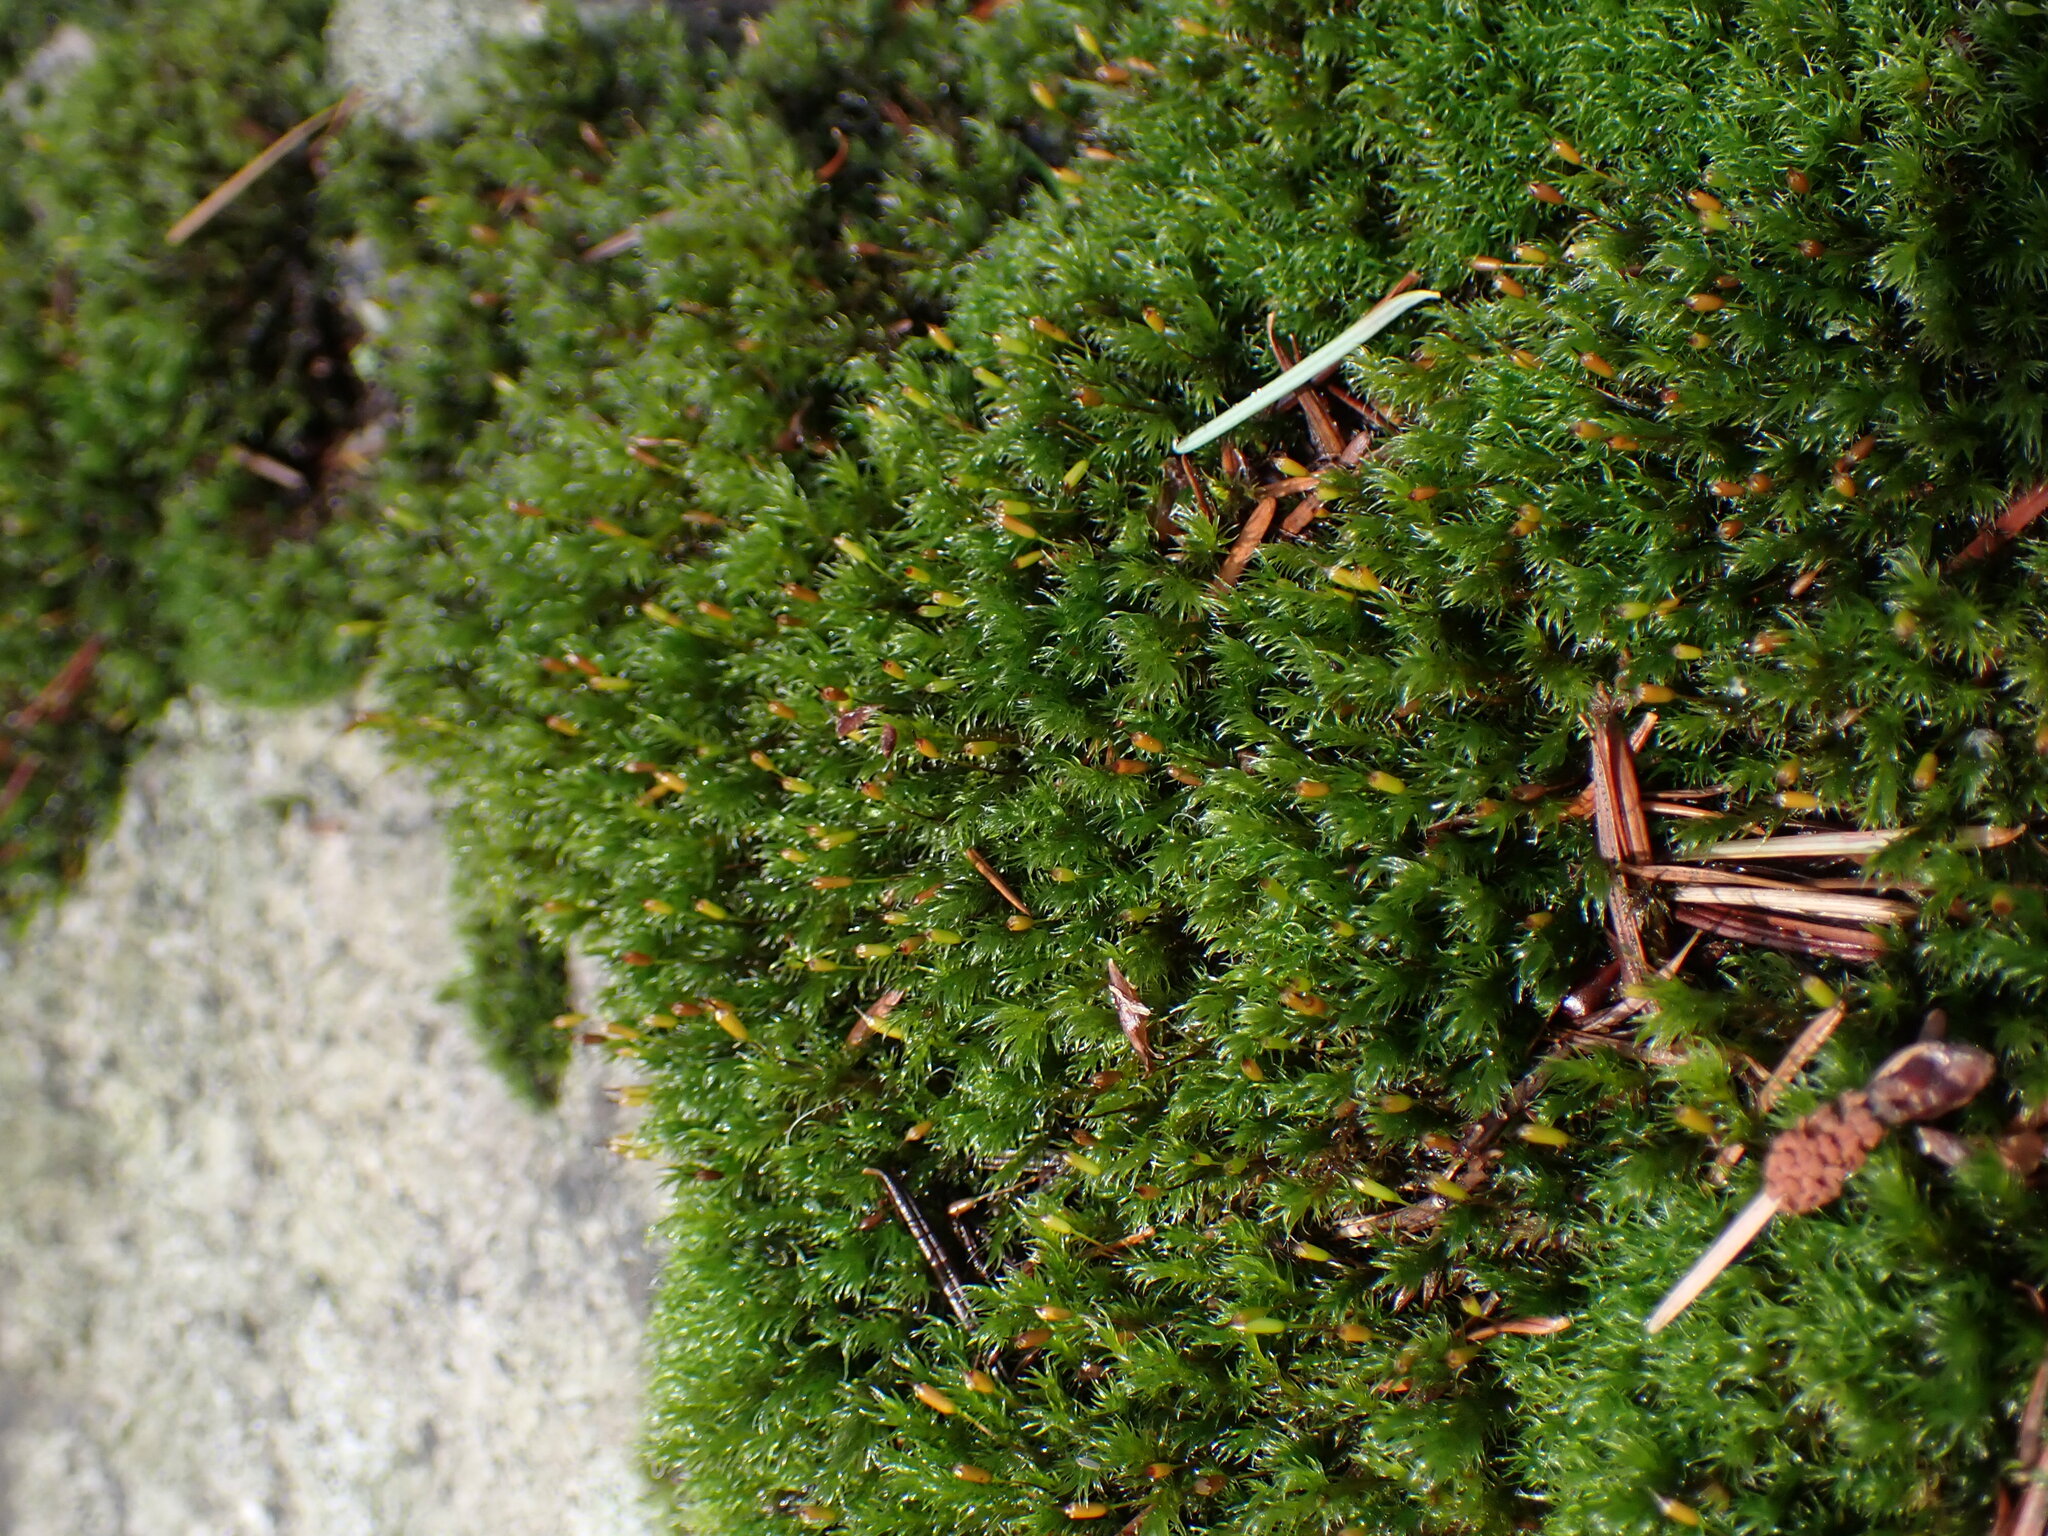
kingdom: Plantae
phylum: Bryophyta
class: Bryopsida
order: Grimmiales
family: Grimmiaceae
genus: Bucklandiella
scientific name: Bucklandiella heterosticha
